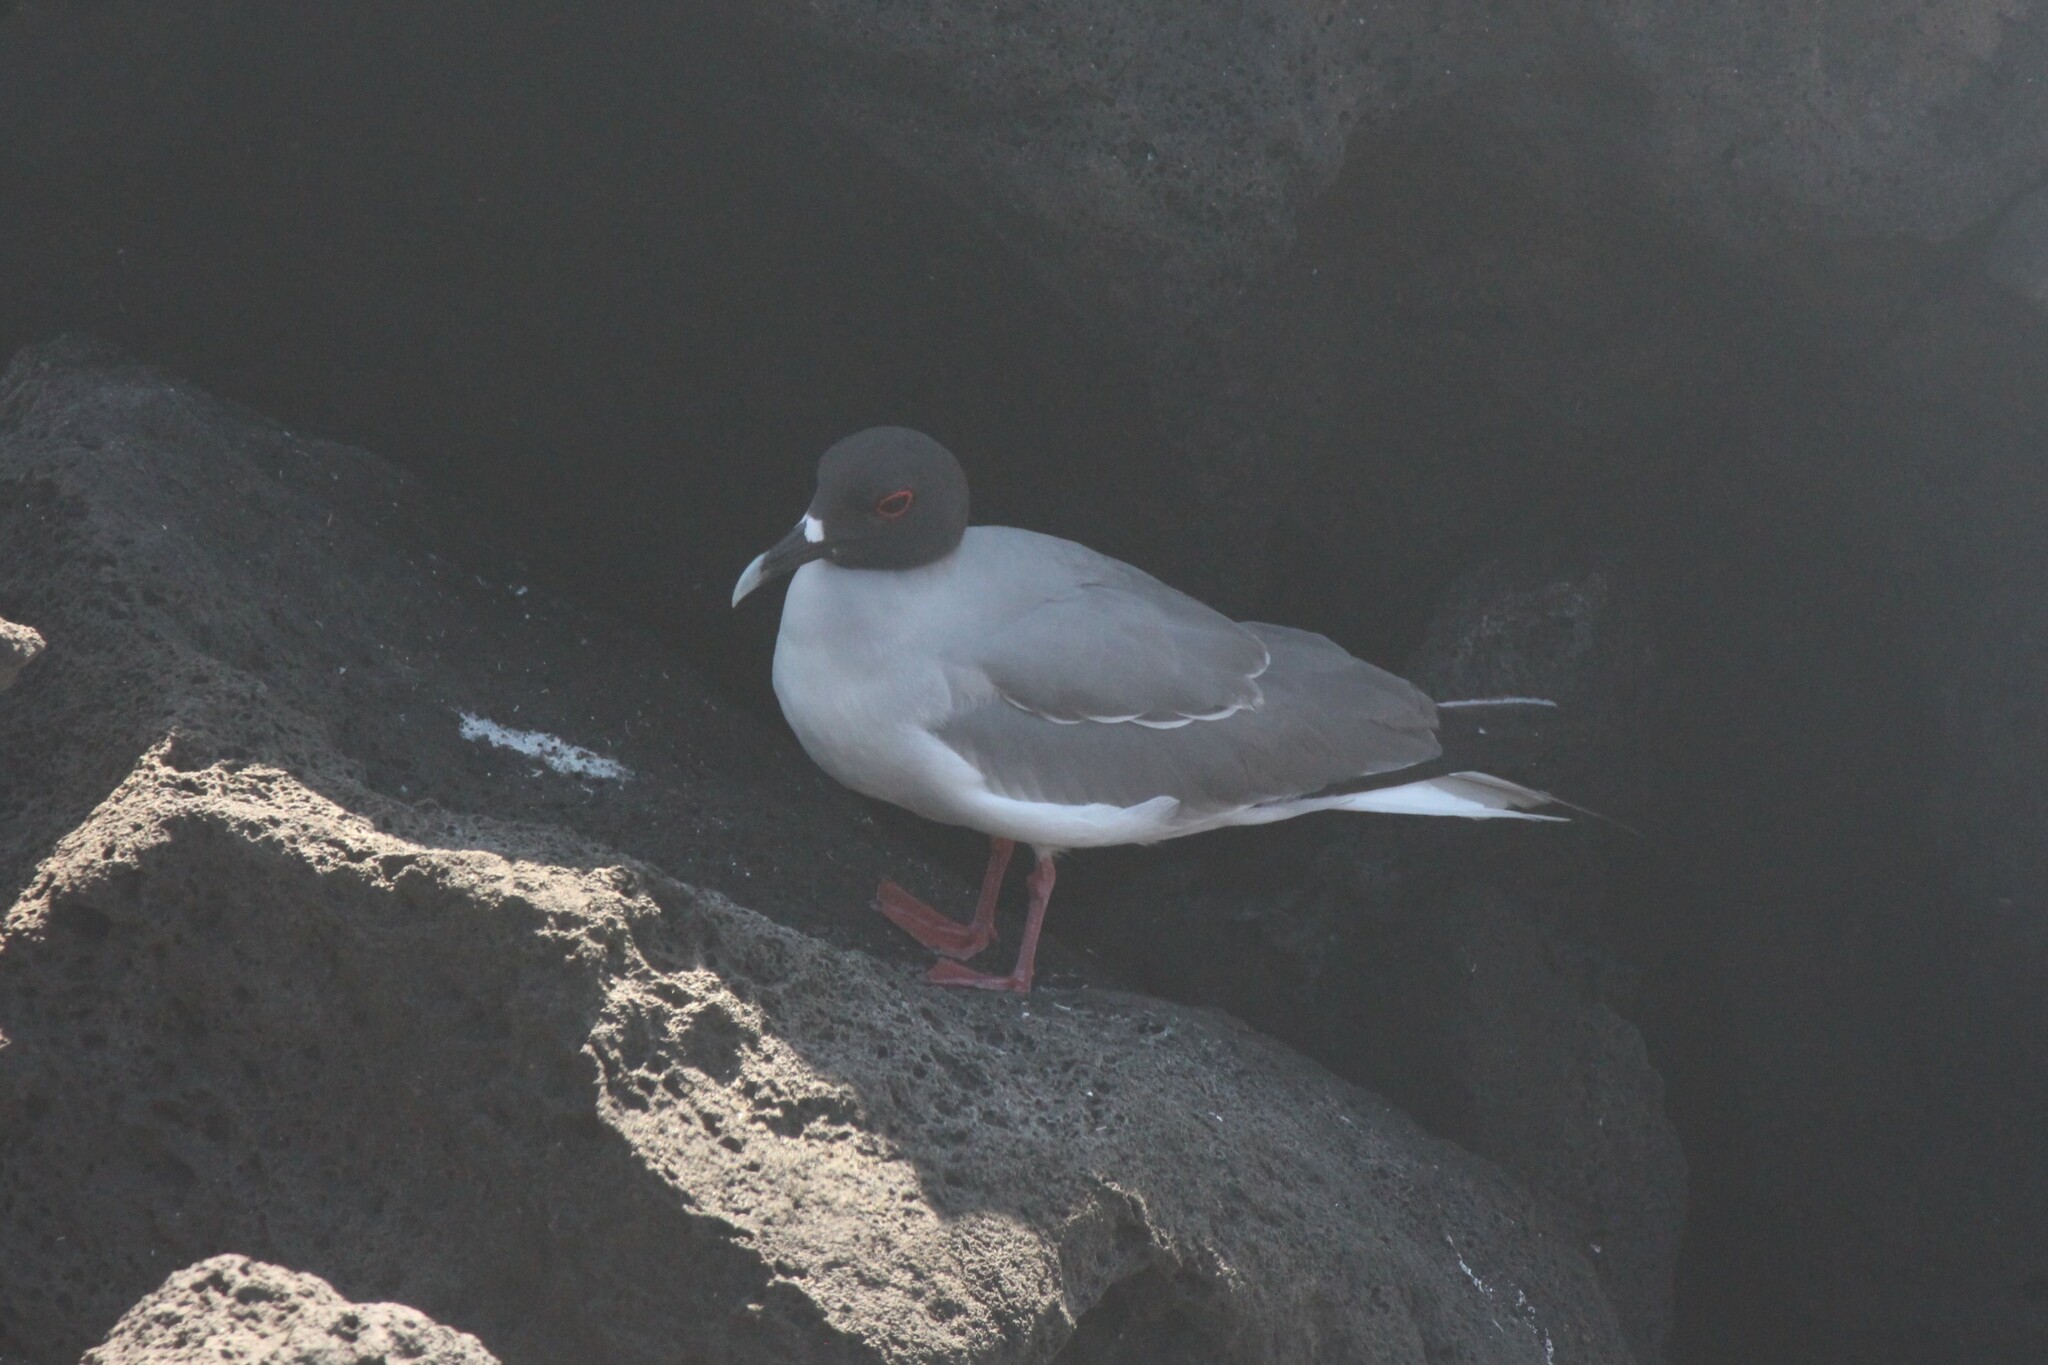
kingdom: Animalia
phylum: Chordata
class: Aves
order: Charadriiformes
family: Laridae
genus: Creagrus
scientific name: Creagrus furcatus
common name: Swallow-tailed gull
